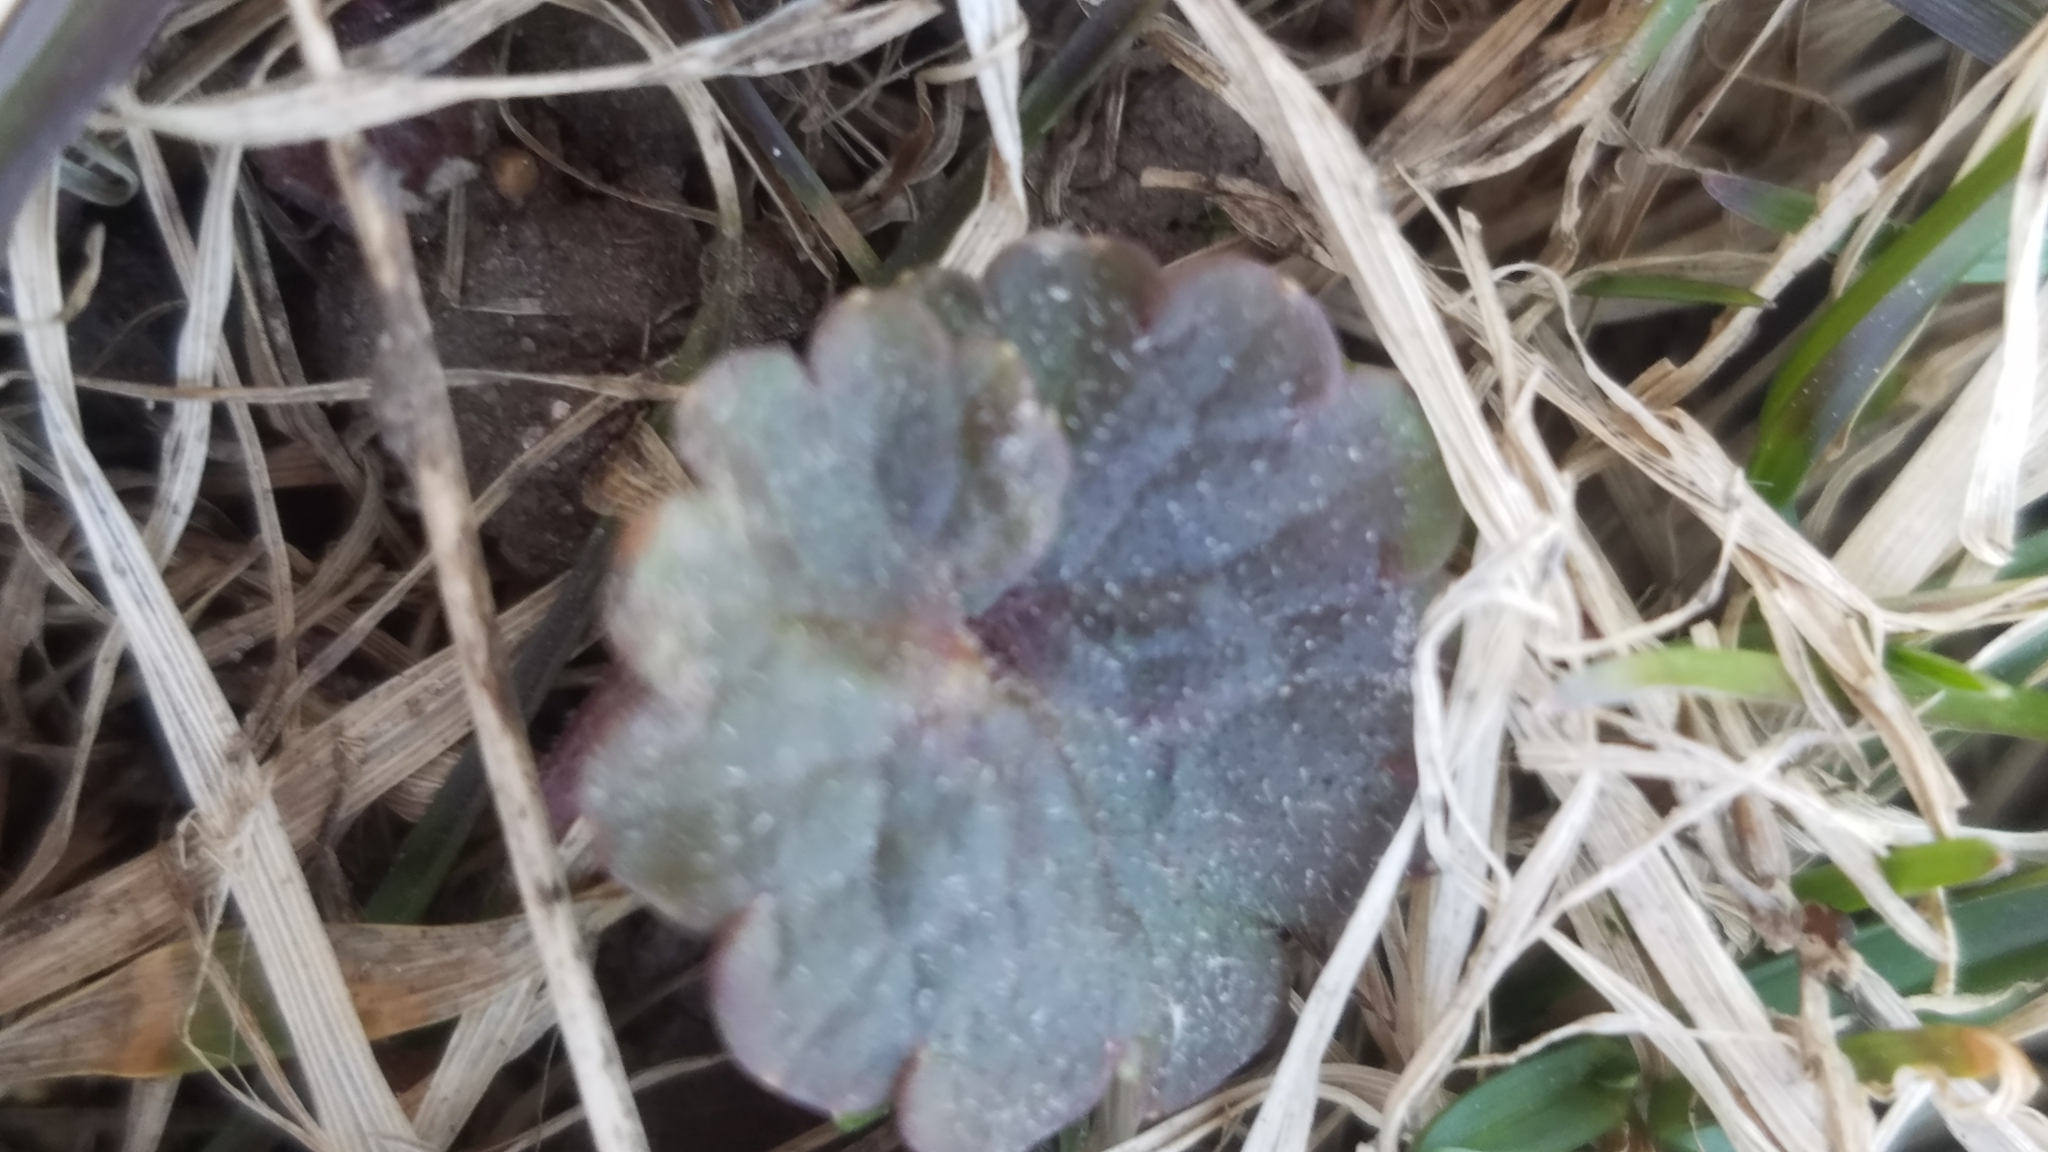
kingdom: Plantae
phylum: Tracheophyta
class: Magnoliopsida
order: Lamiales
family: Lamiaceae
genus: Glechoma
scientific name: Glechoma hederacea
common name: Ground ivy
